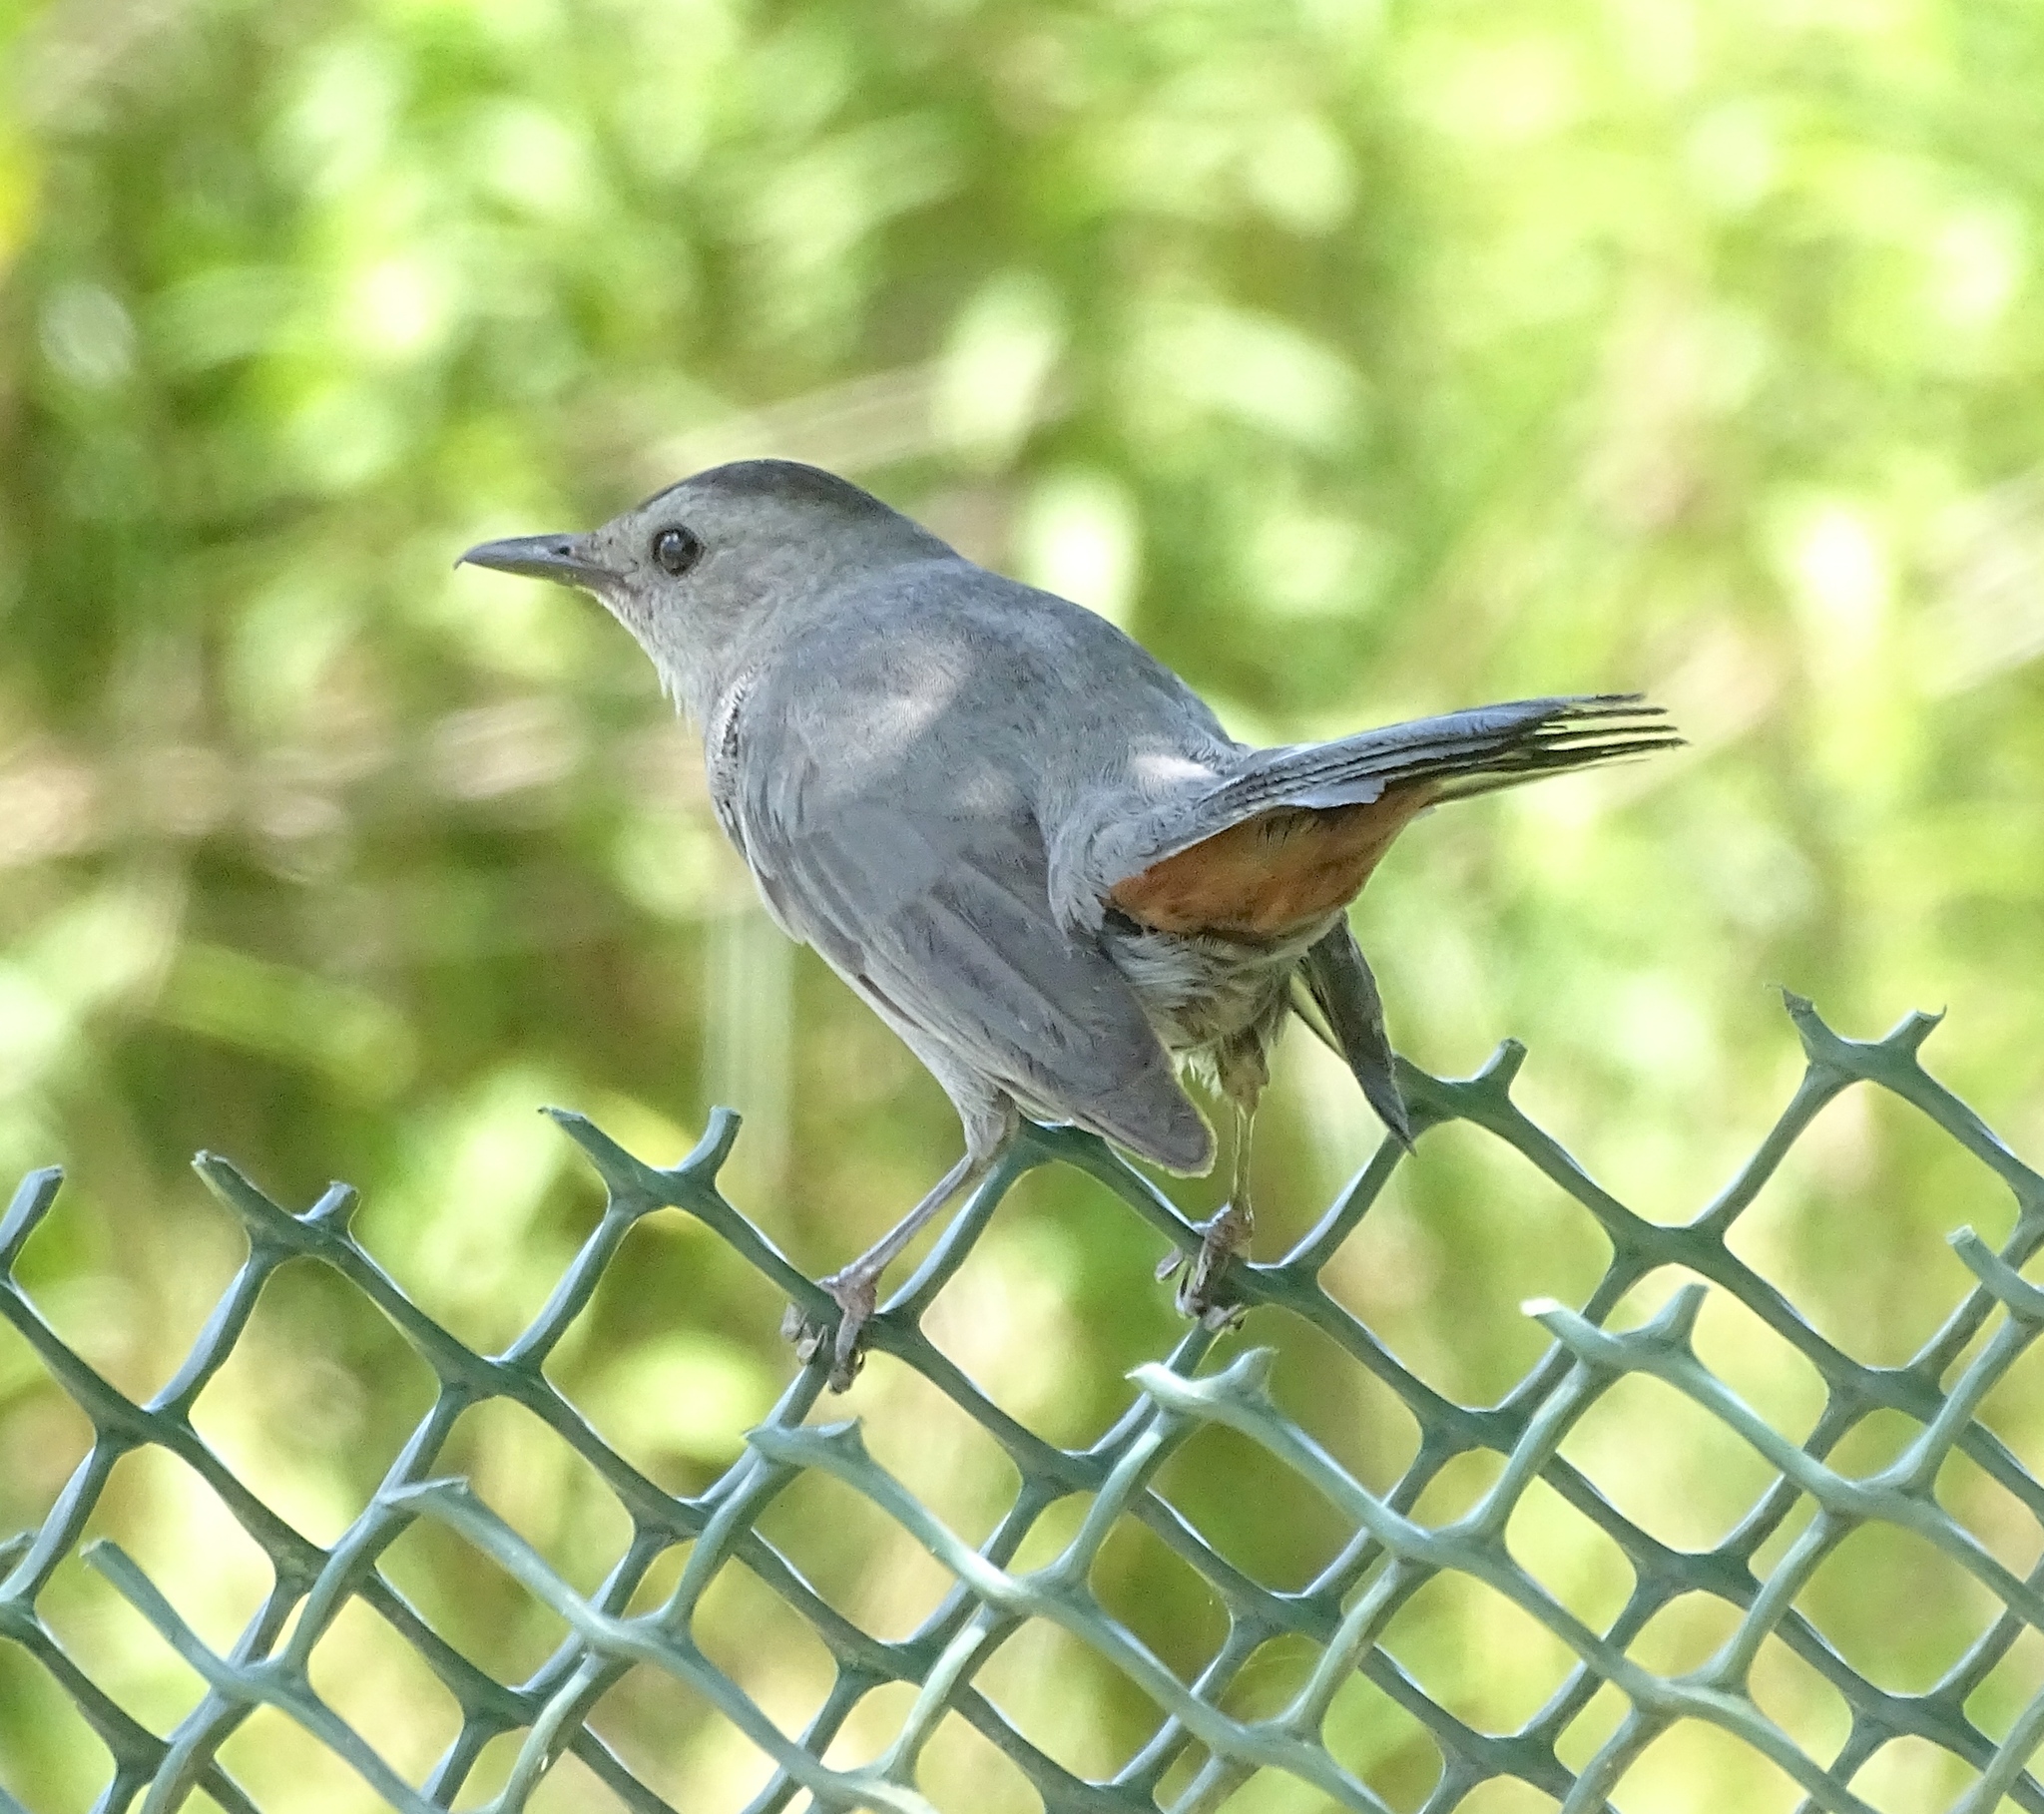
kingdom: Animalia
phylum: Chordata
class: Aves
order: Passeriformes
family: Mimidae
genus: Dumetella
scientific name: Dumetella carolinensis
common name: Gray catbird
